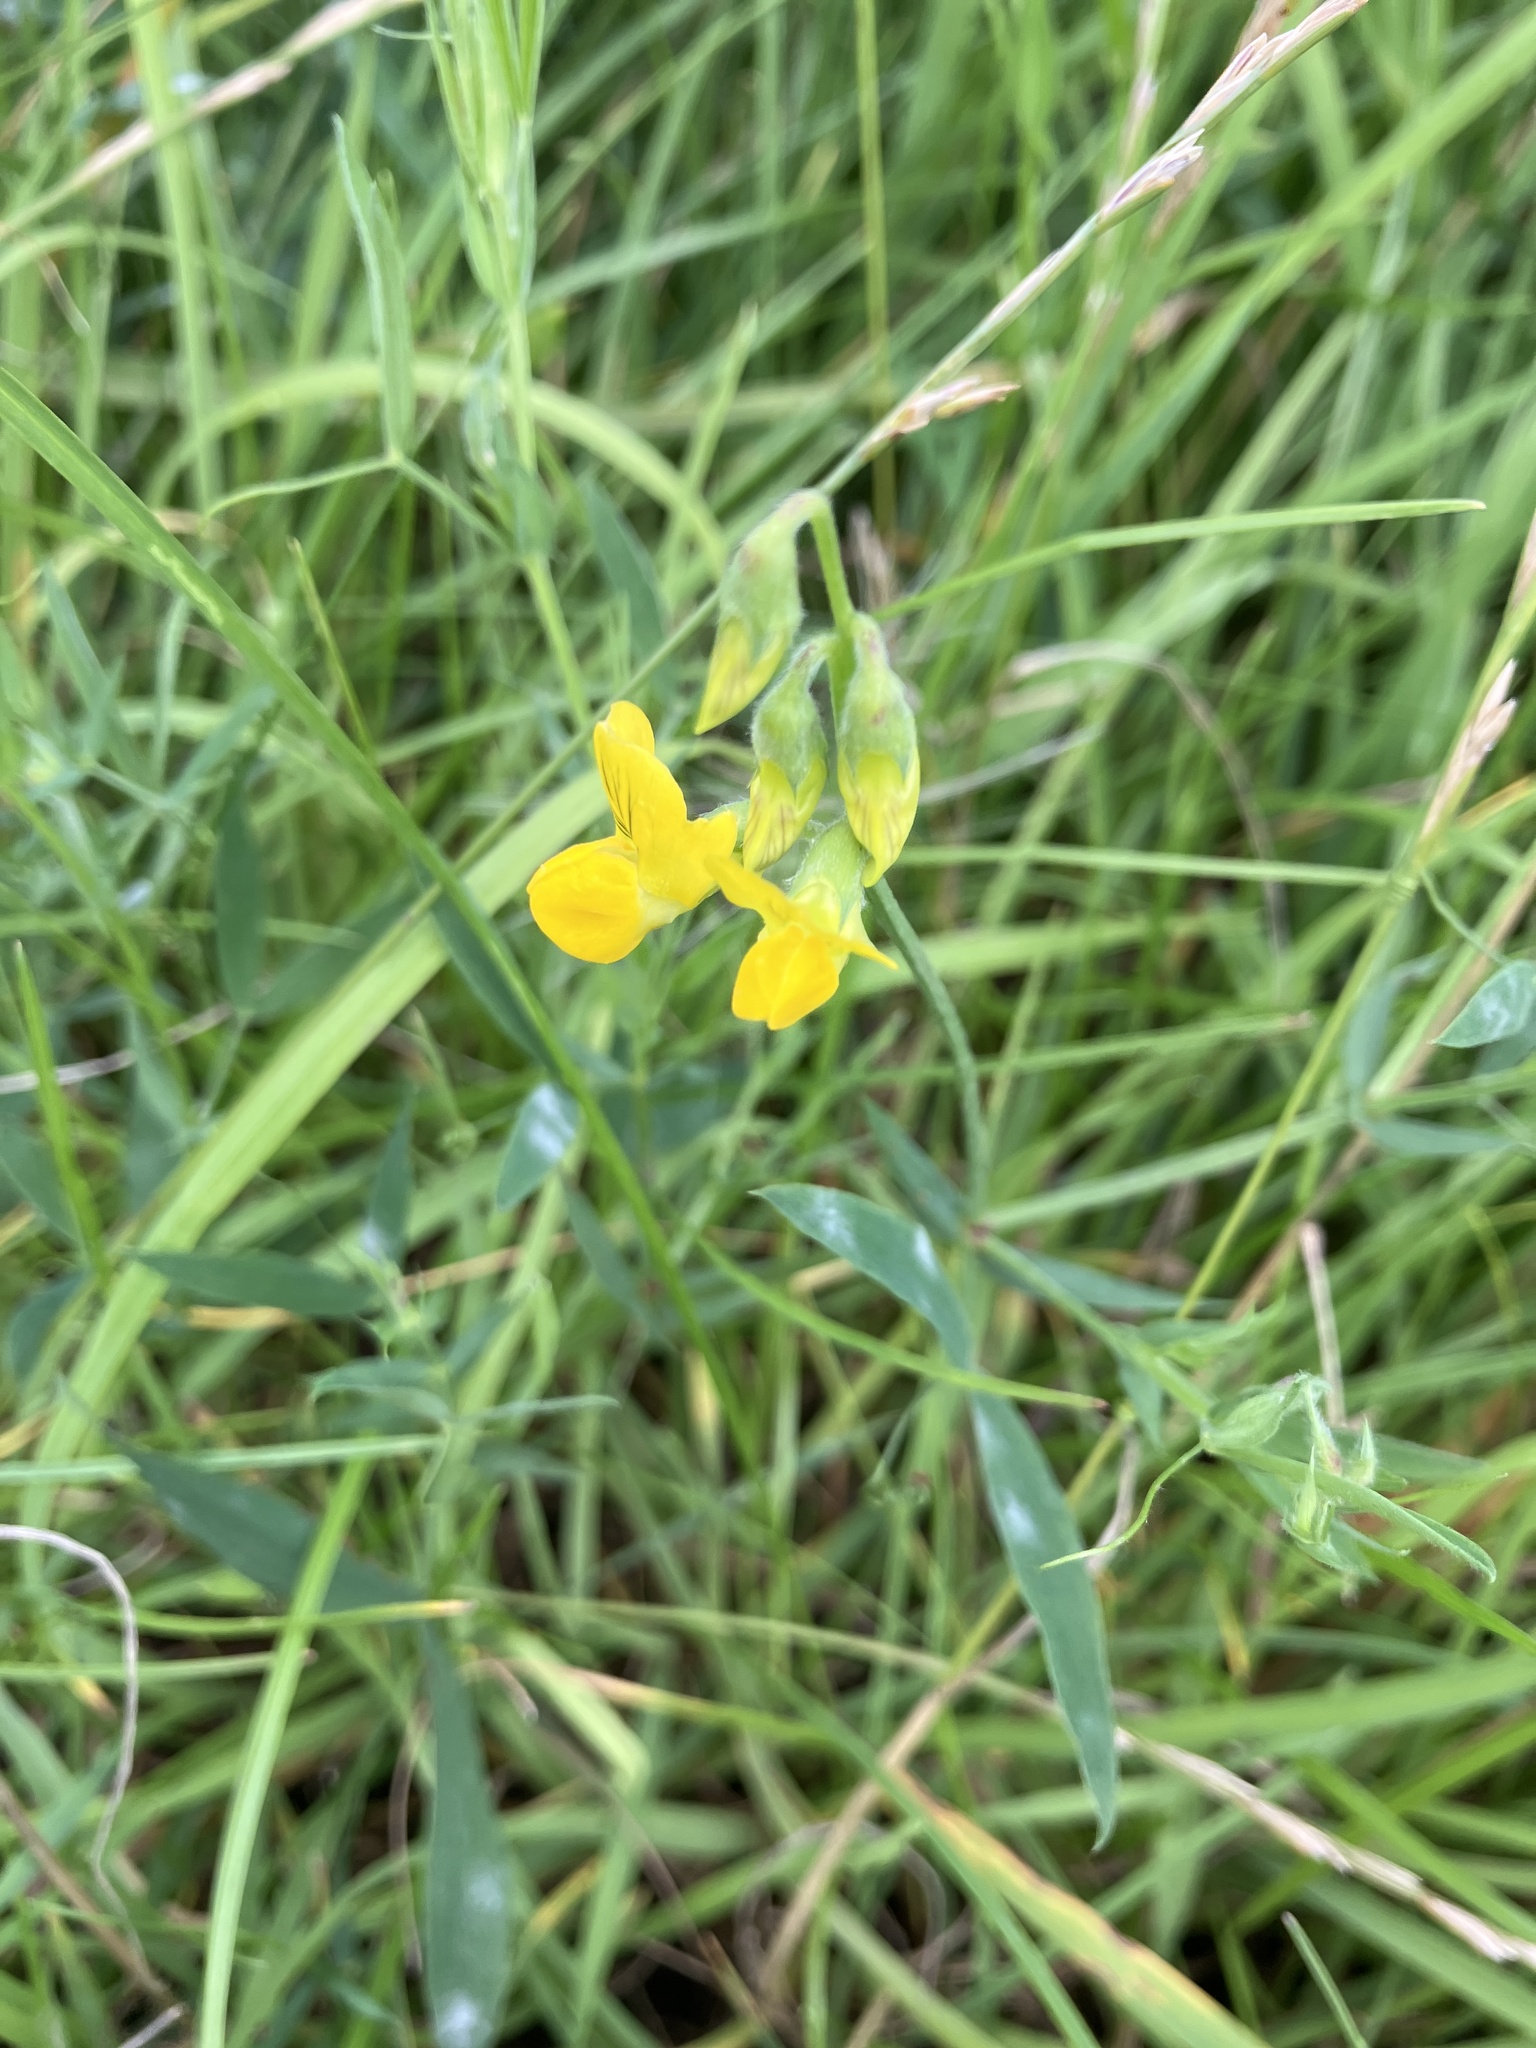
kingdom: Plantae
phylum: Tracheophyta
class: Magnoliopsida
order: Fabales
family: Fabaceae
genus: Lathyrus
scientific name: Lathyrus pratensis
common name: Meadow vetchling
